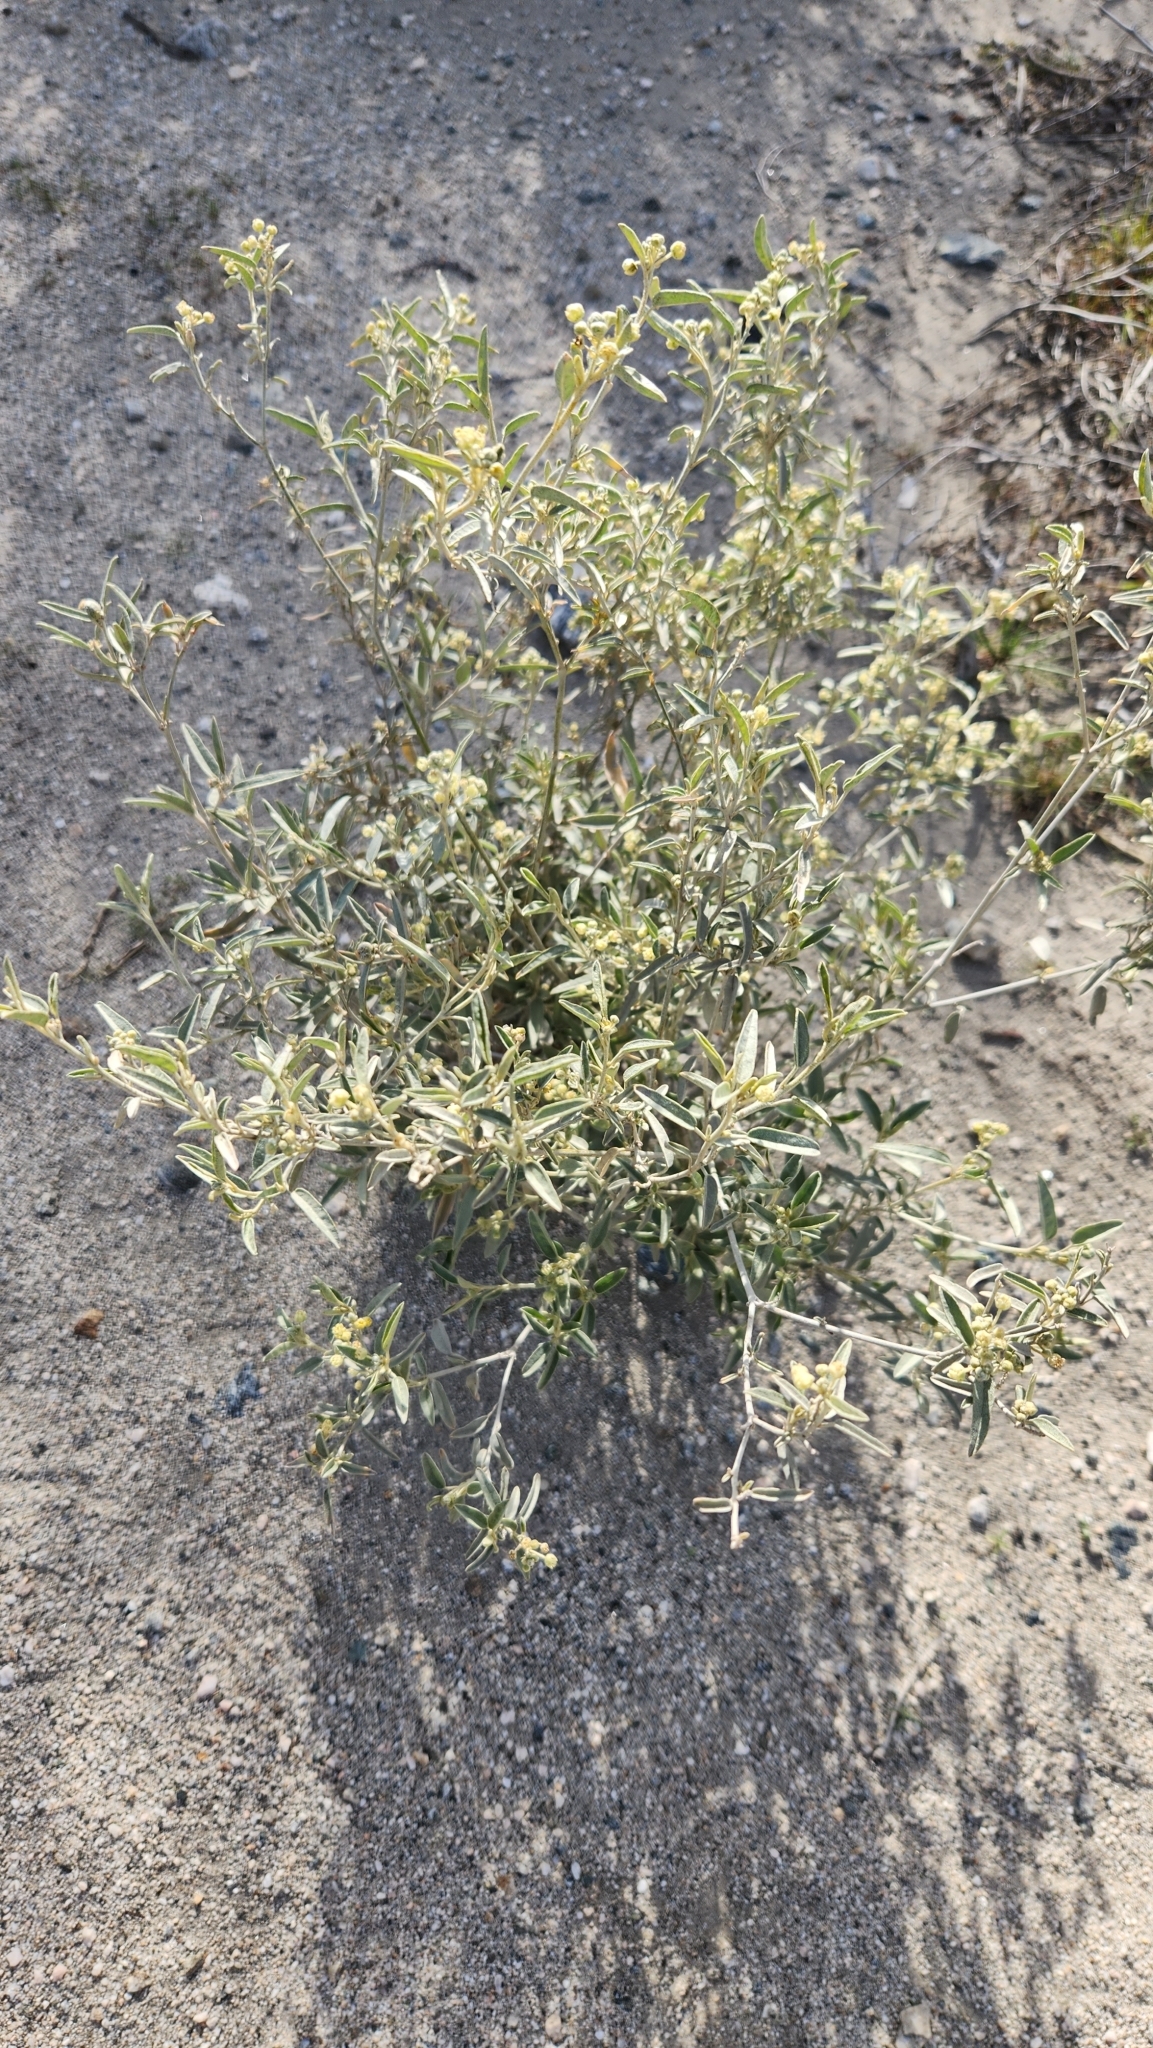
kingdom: Plantae
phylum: Tracheophyta
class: Magnoliopsida
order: Malpighiales
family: Euphorbiaceae
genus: Croton
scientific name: Croton californicus
